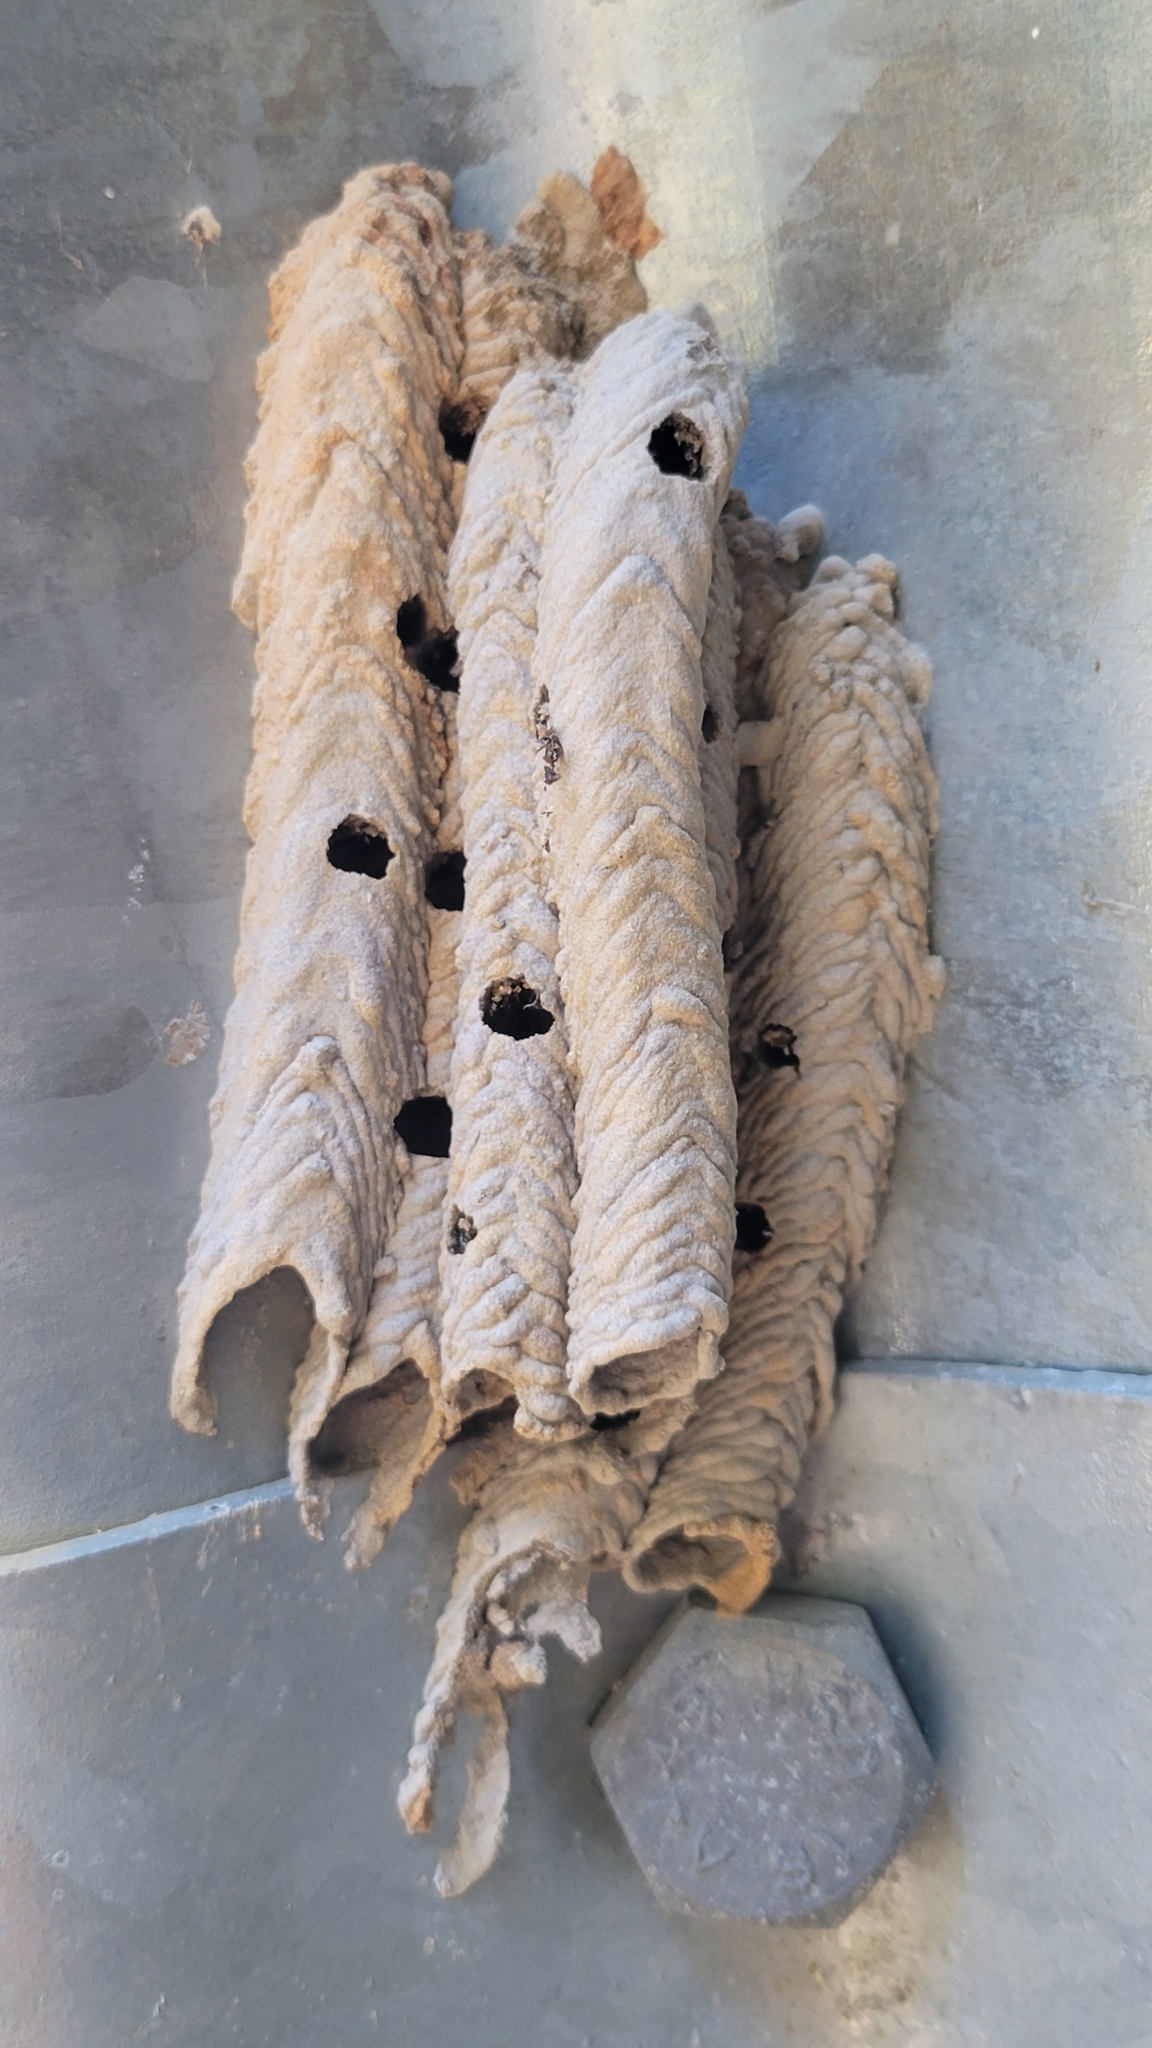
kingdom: Animalia
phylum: Arthropoda
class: Insecta
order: Hymenoptera
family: Crabronidae
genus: Trypoxylon
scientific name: Trypoxylon politum
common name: Organ-pipe mud-dauber wasp
